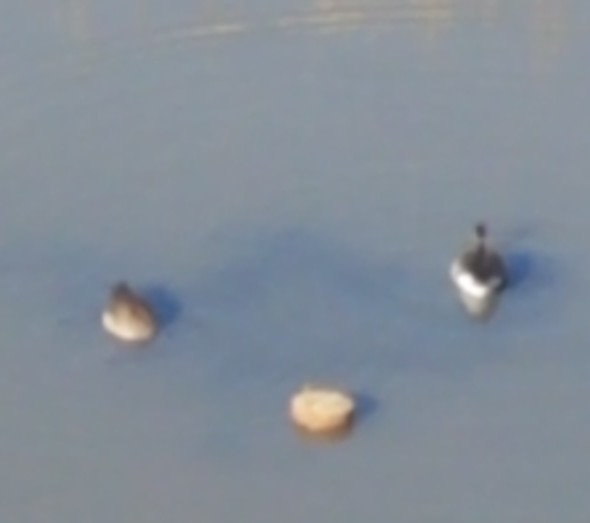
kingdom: Animalia
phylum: Chordata
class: Aves
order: Anseriformes
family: Anatidae
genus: Branta
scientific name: Branta canadensis
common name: Canada goose
